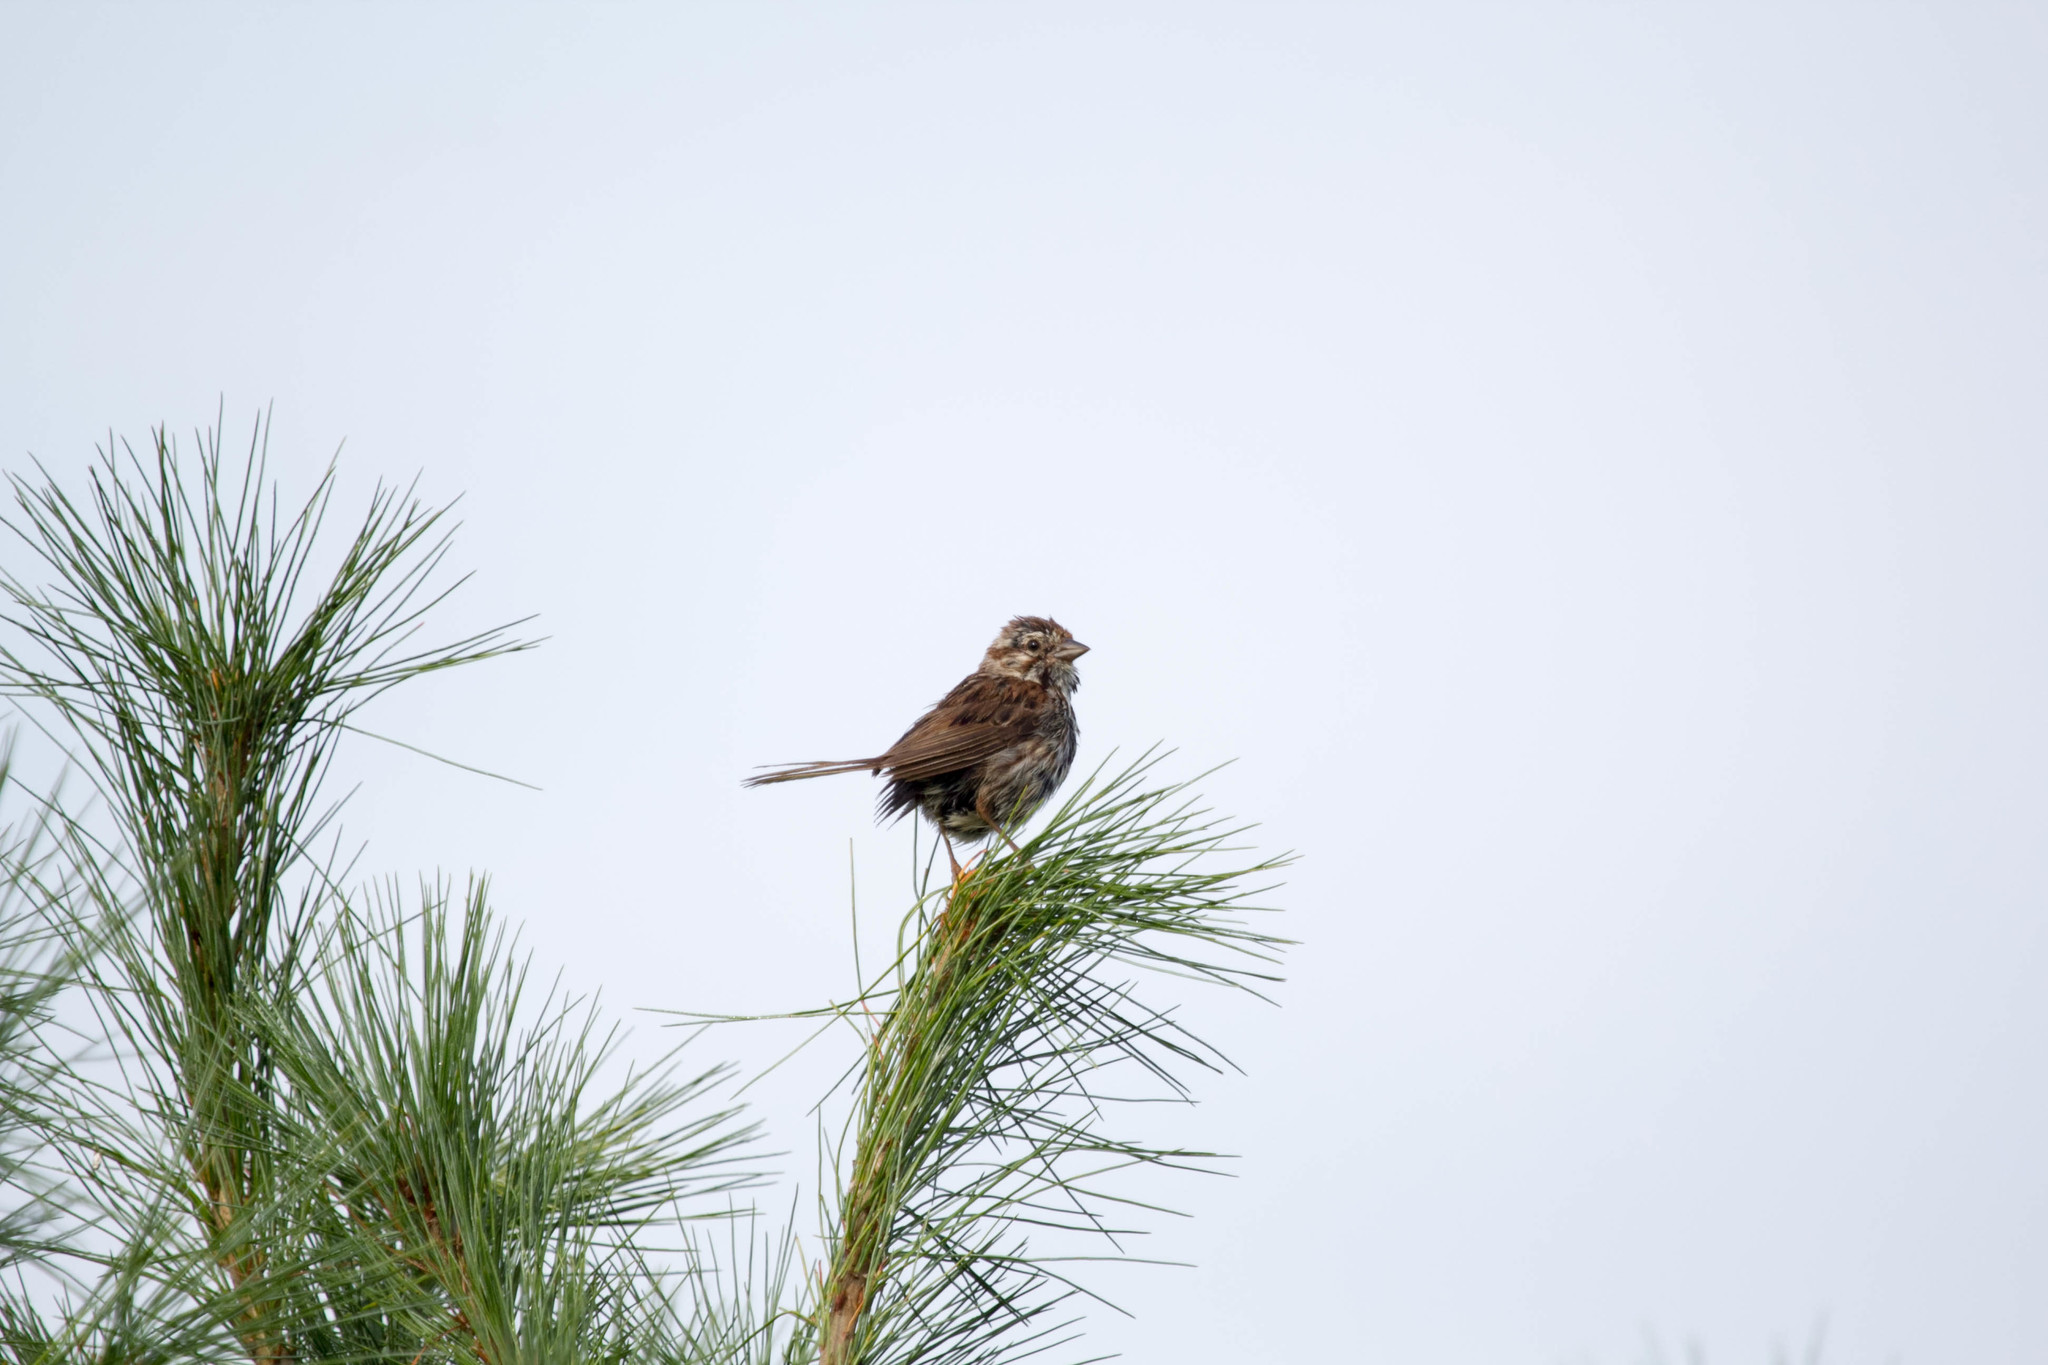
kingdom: Animalia
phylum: Chordata
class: Aves
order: Passeriformes
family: Passerellidae
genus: Melospiza
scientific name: Melospiza melodia
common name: Song sparrow
